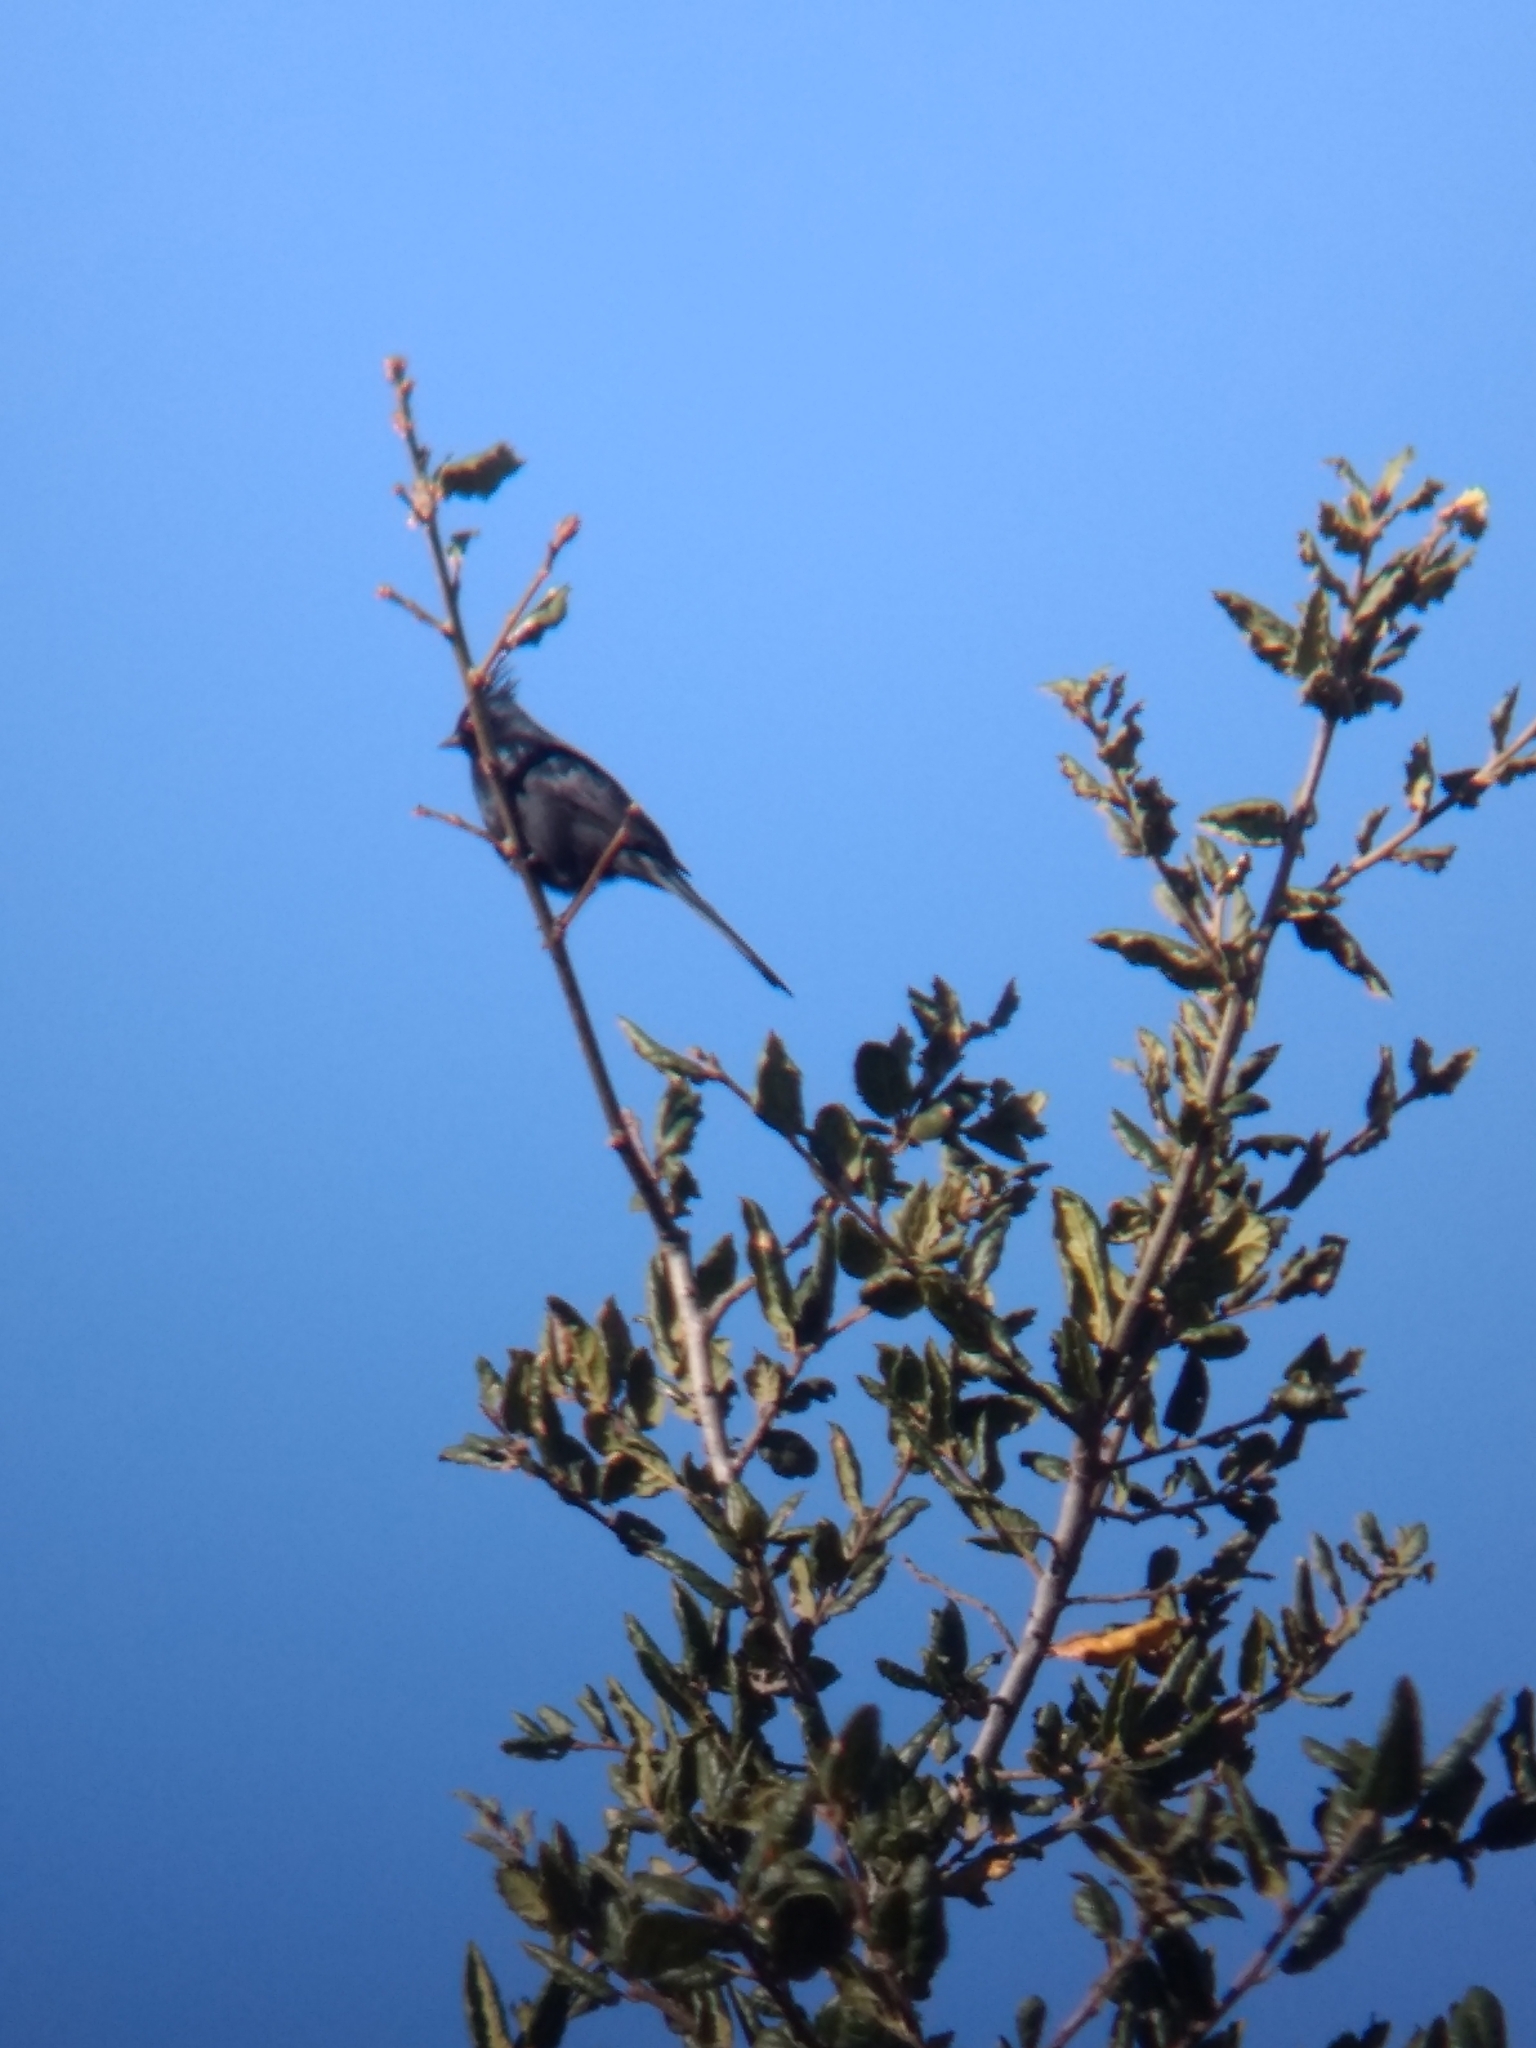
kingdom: Animalia
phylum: Chordata
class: Aves
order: Passeriformes
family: Ptilogonatidae
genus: Phainopepla
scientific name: Phainopepla nitens
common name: Phainopepla
